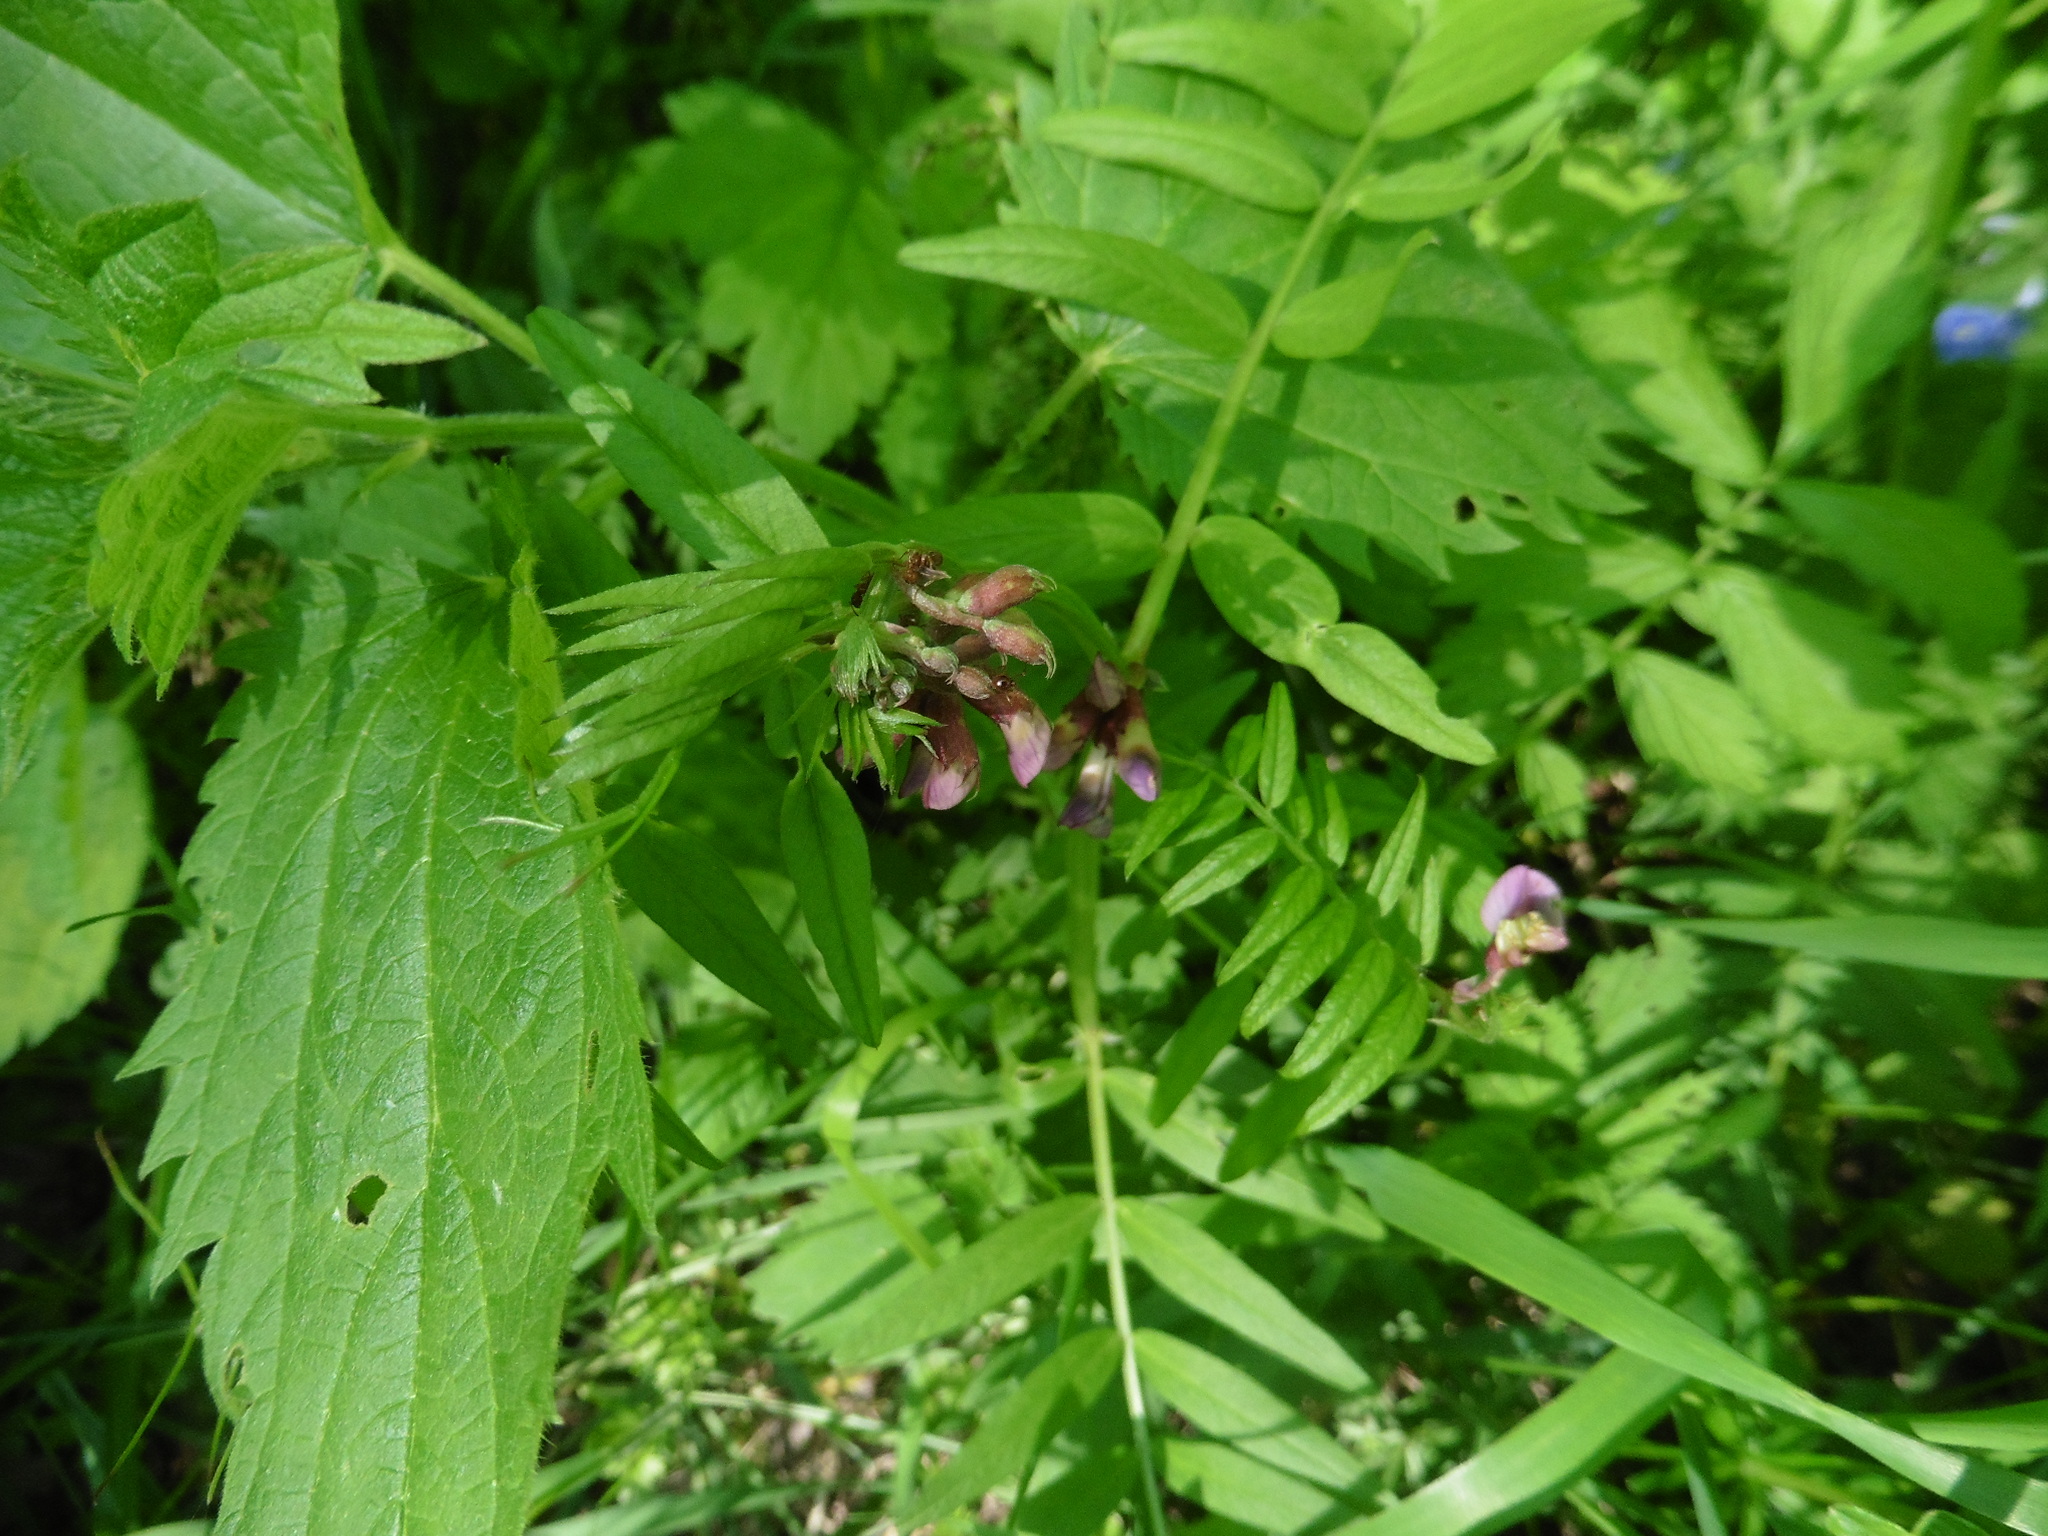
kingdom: Plantae
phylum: Tracheophyta
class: Magnoliopsida
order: Fabales
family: Fabaceae
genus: Vicia
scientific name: Vicia sepium
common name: Bush vetch
